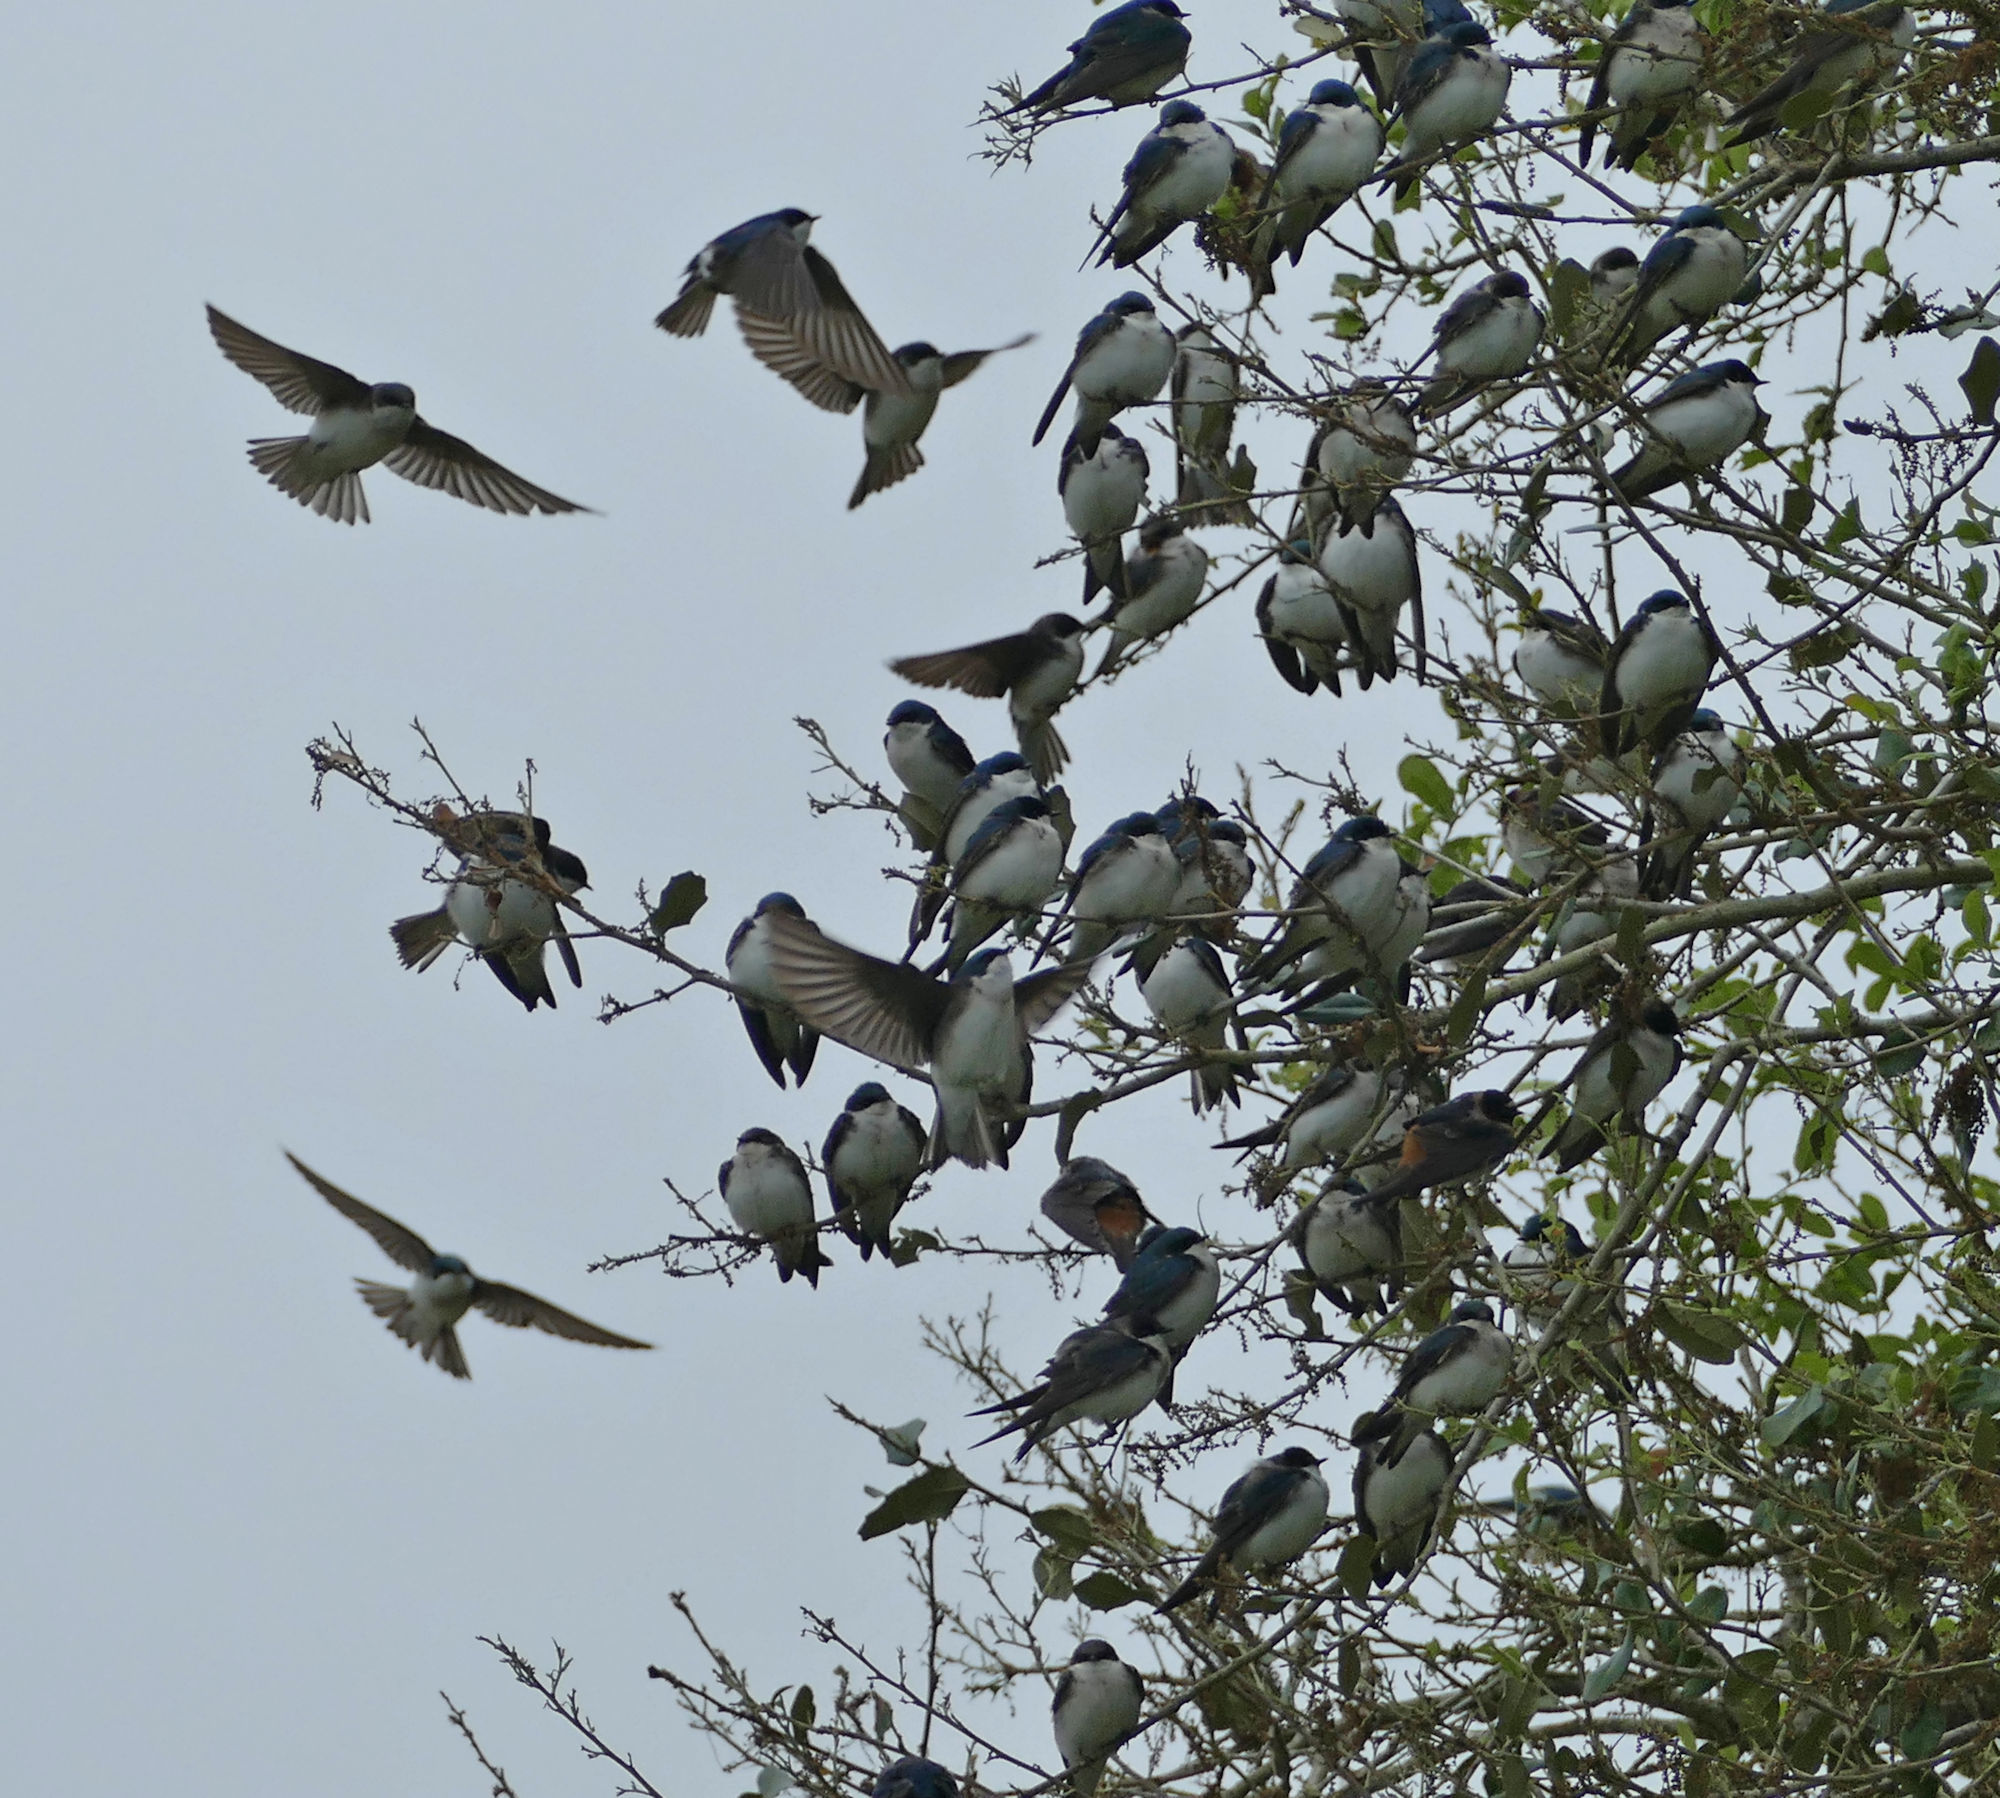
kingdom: Animalia
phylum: Chordata
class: Aves
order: Passeriformes
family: Hirundinidae
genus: Tachycineta
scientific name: Tachycineta bicolor
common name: Tree swallow
